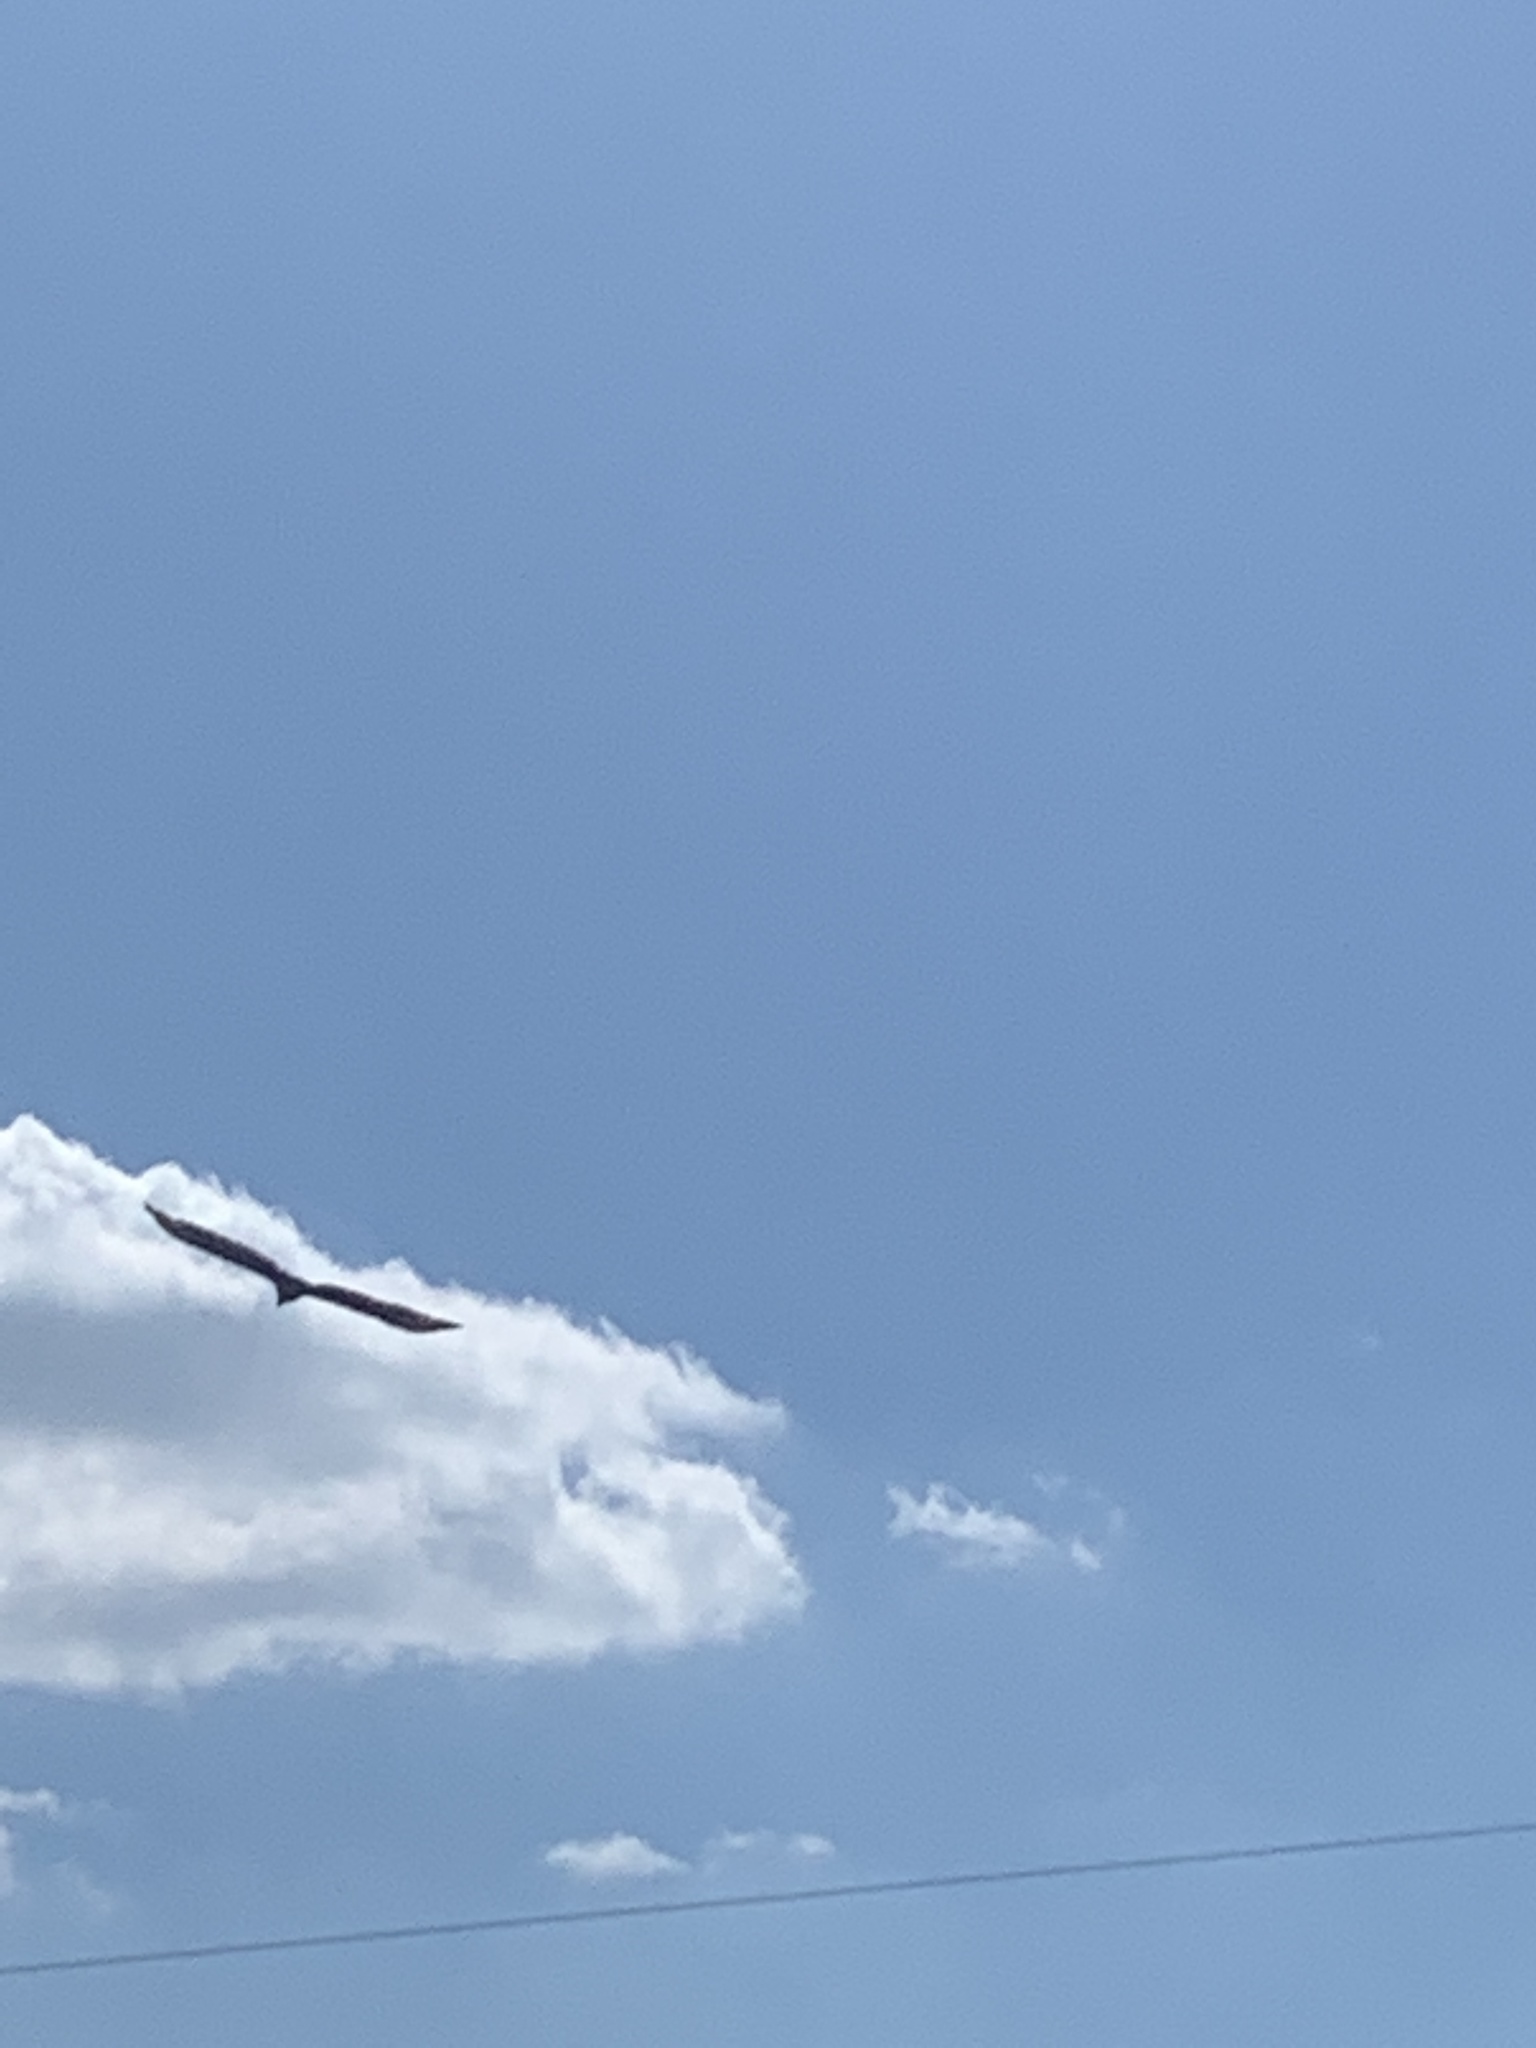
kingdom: Animalia
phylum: Chordata
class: Aves
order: Accipitriformes
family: Cathartidae
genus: Cathartes
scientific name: Cathartes aura
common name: Turkey vulture
